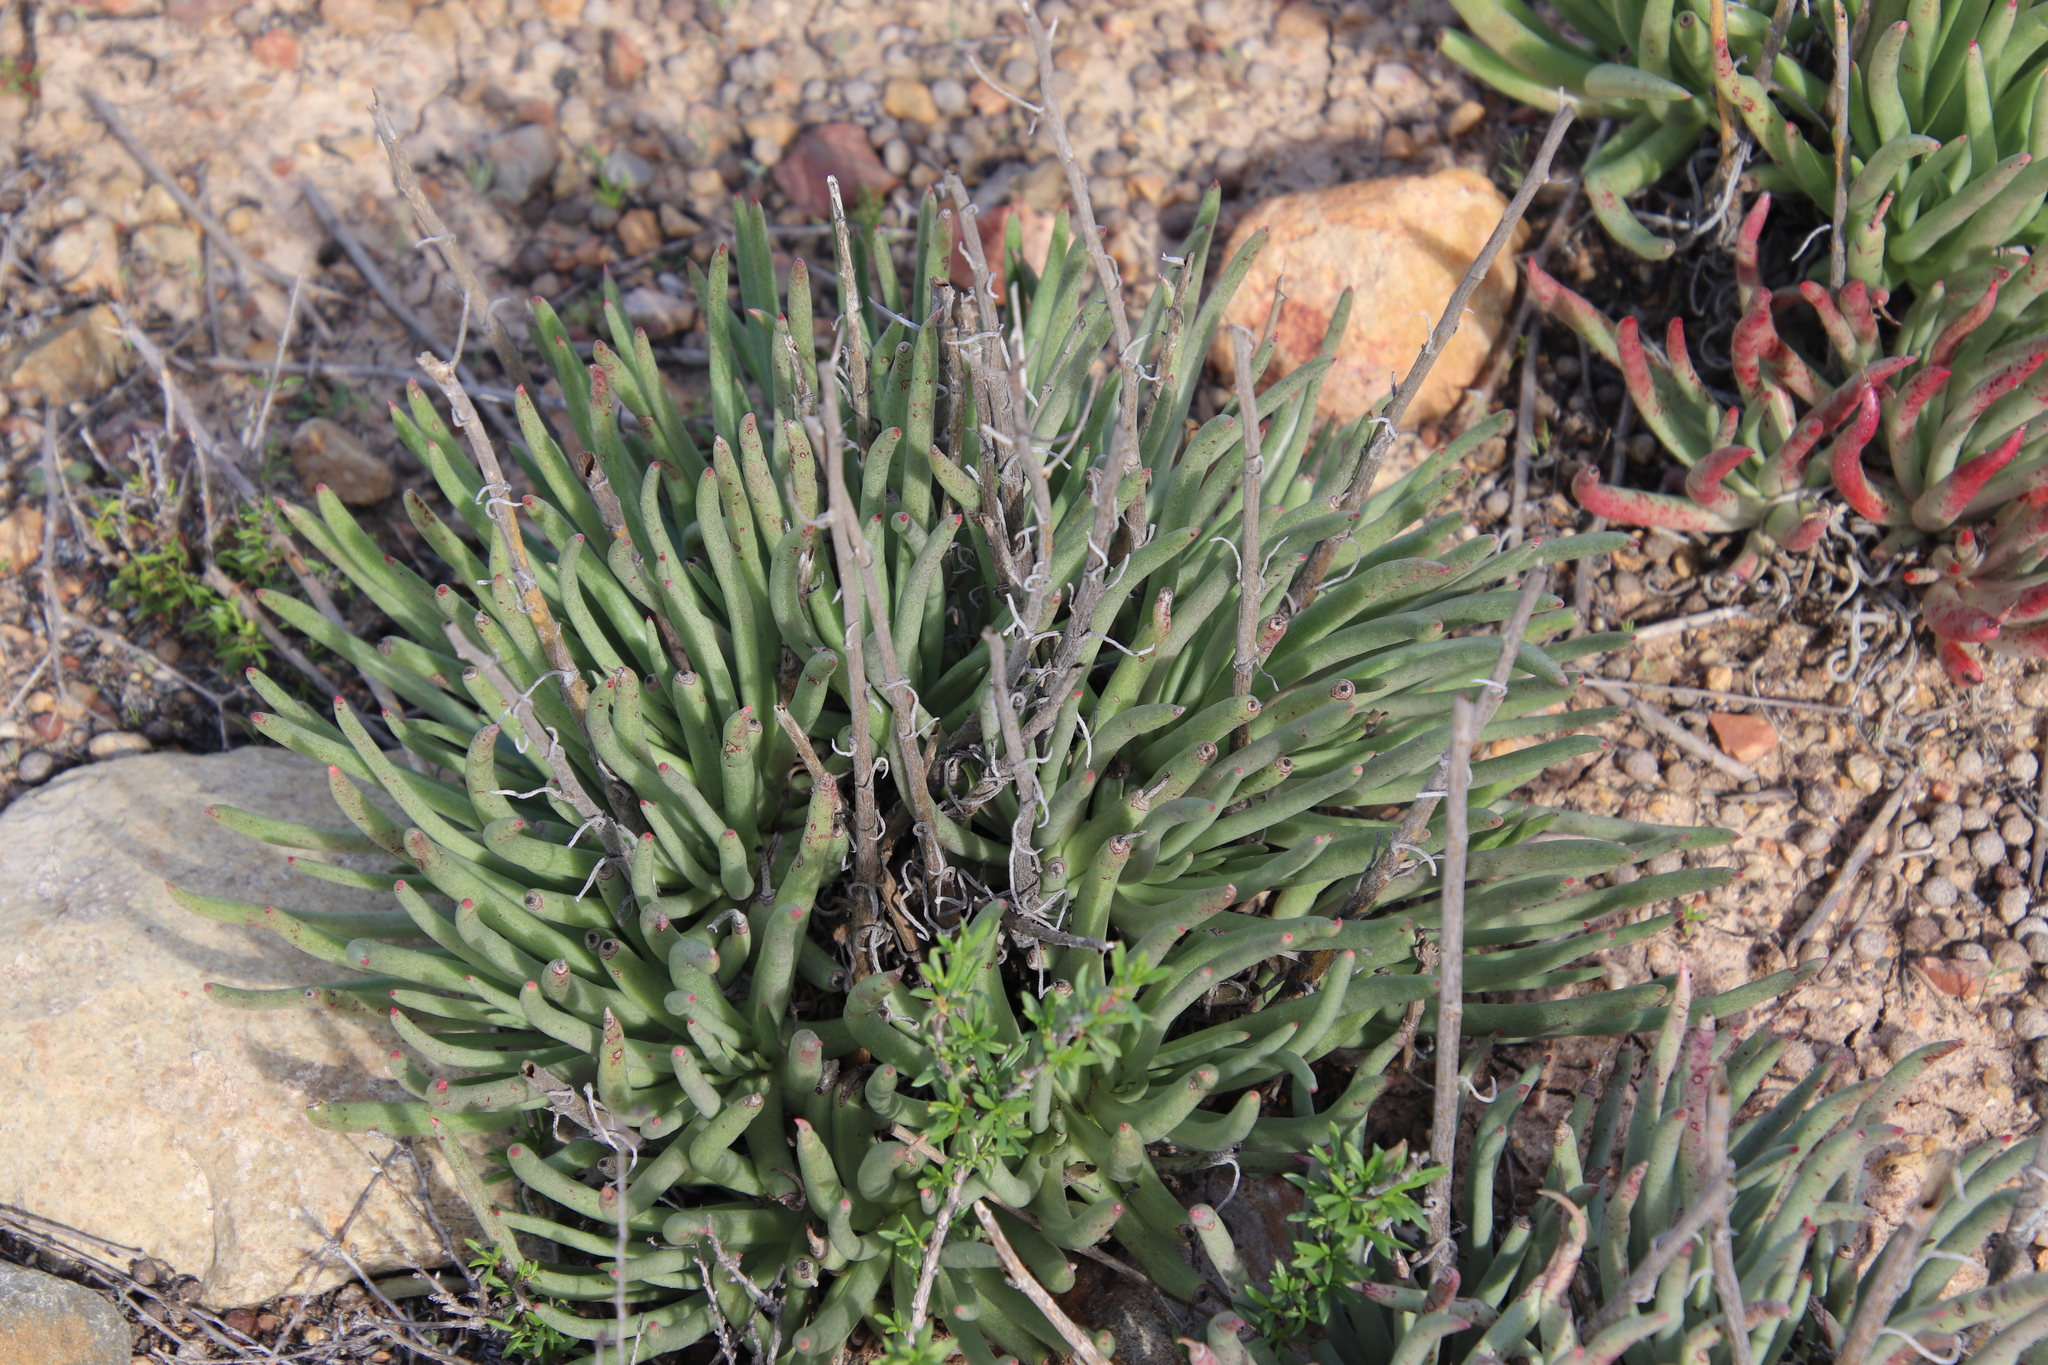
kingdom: Plantae
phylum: Tracheophyta
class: Magnoliopsida
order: Saxifragales
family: Crassulaceae
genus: Dudleya
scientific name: Dudleya edulis
